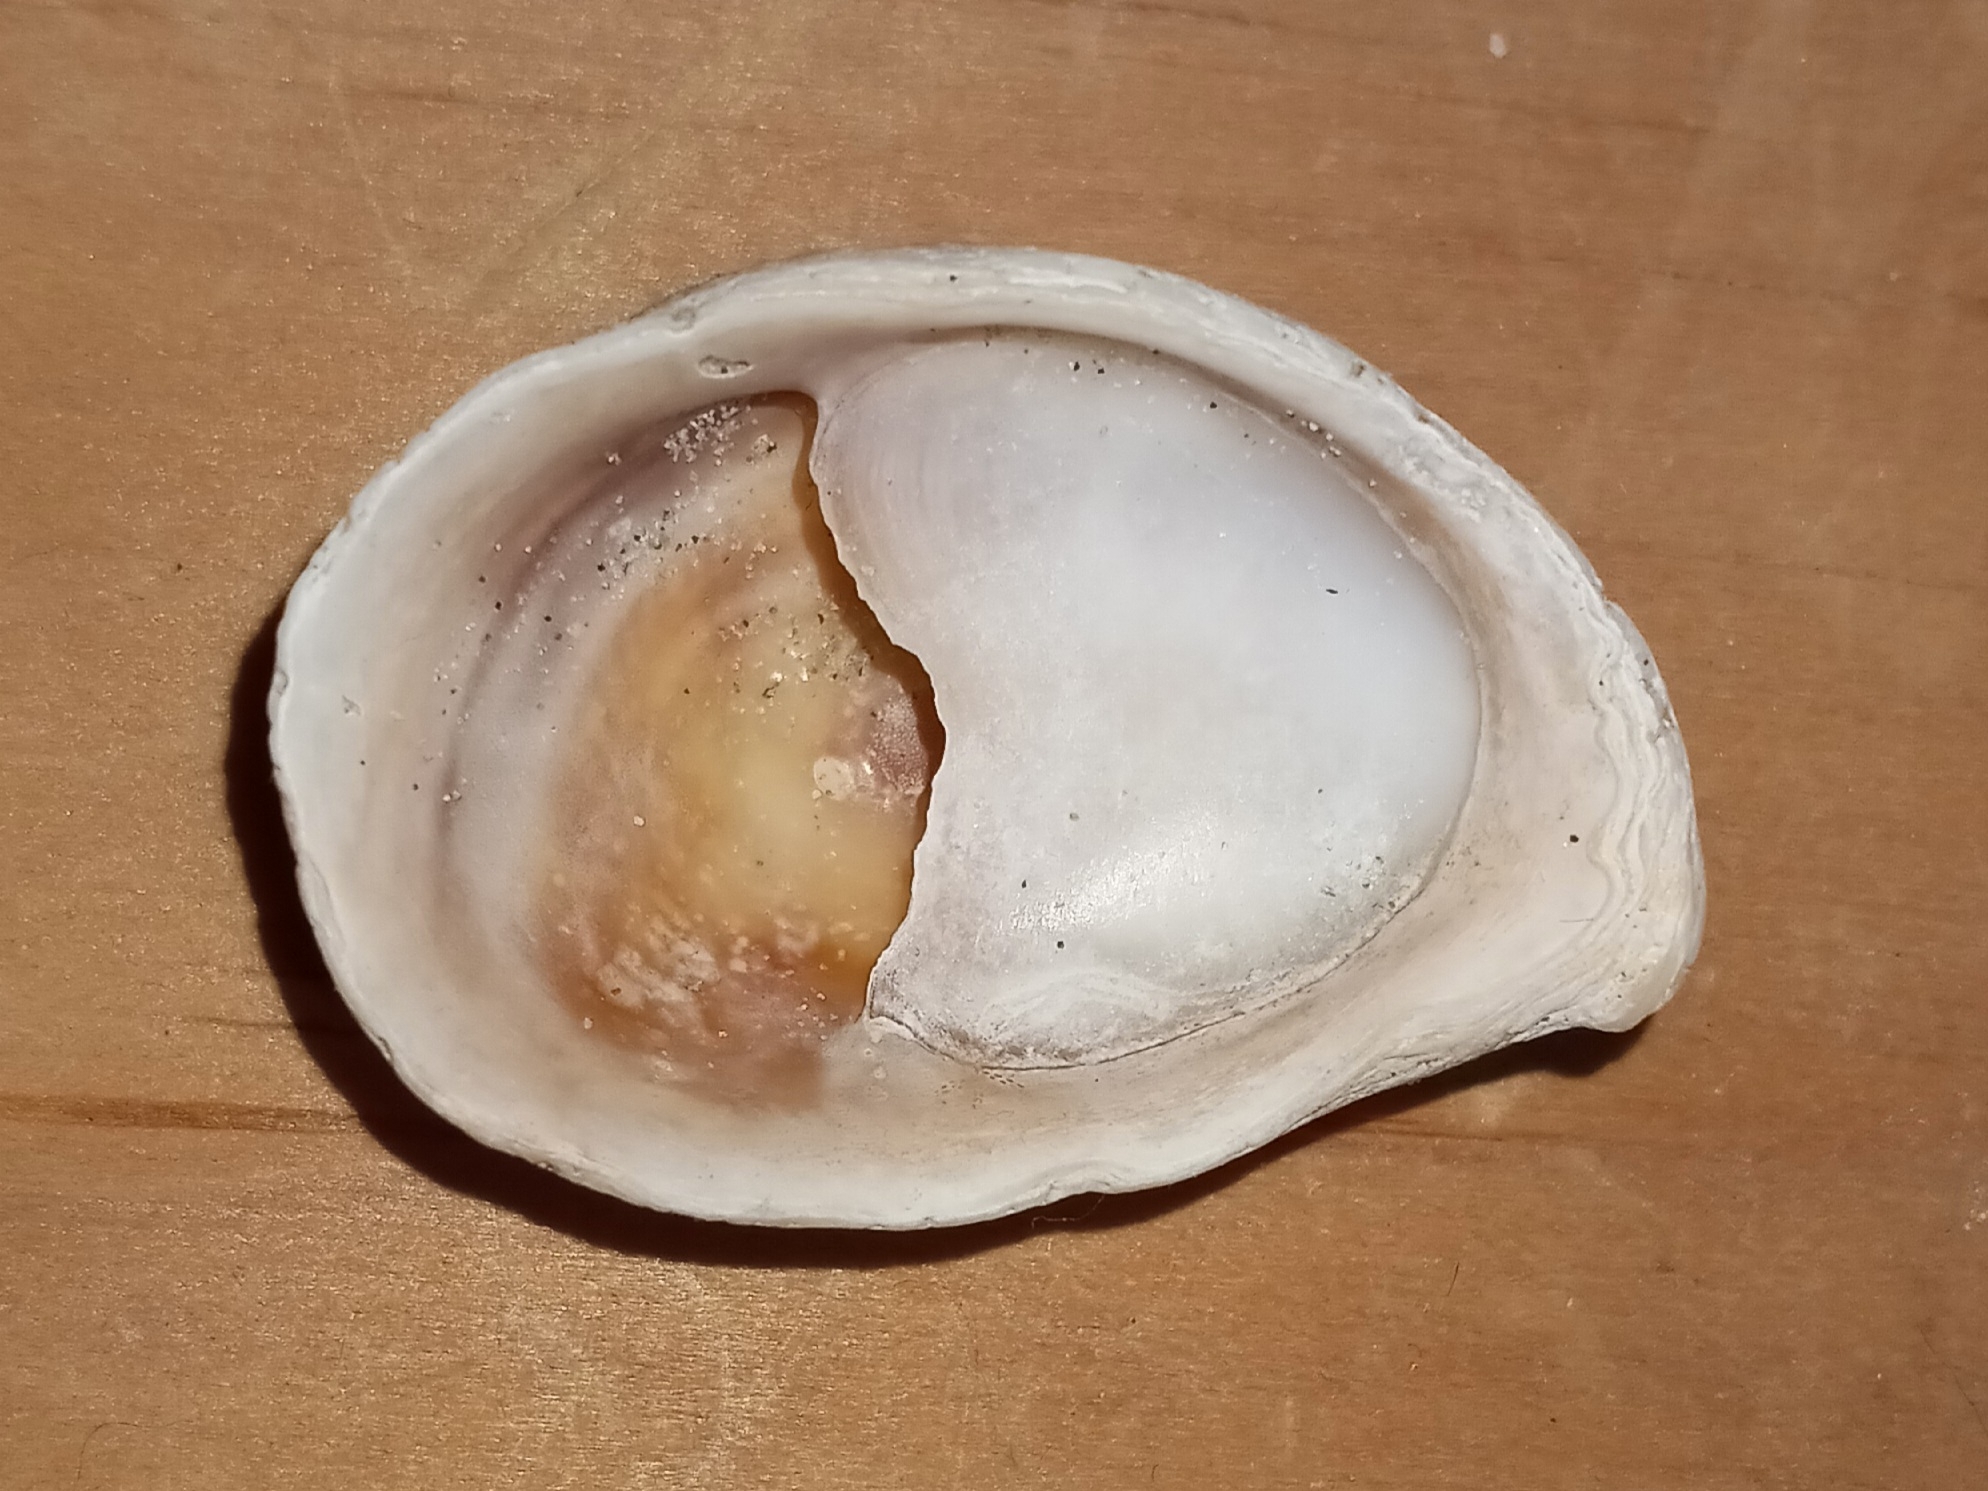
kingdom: Animalia
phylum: Mollusca
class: Gastropoda
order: Littorinimorpha
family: Calyptraeidae
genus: Crepidula
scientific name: Crepidula fornicata
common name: Slipper limpet
